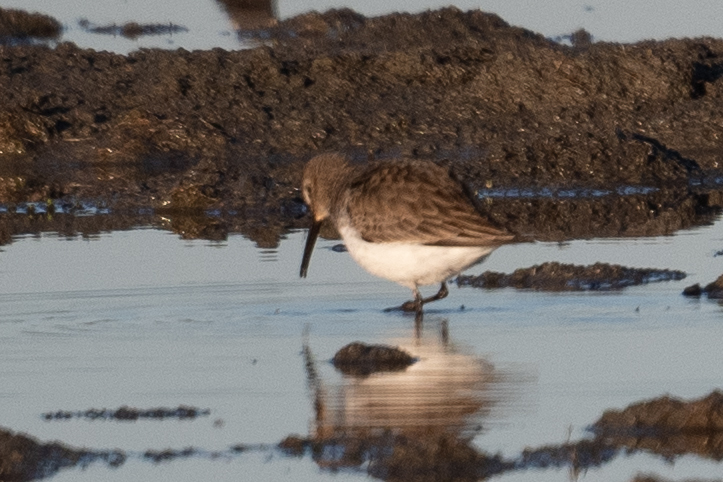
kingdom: Animalia
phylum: Chordata
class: Aves
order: Charadriiformes
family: Scolopacidae
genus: Calidris
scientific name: Calidris alpina
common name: Dunlin
